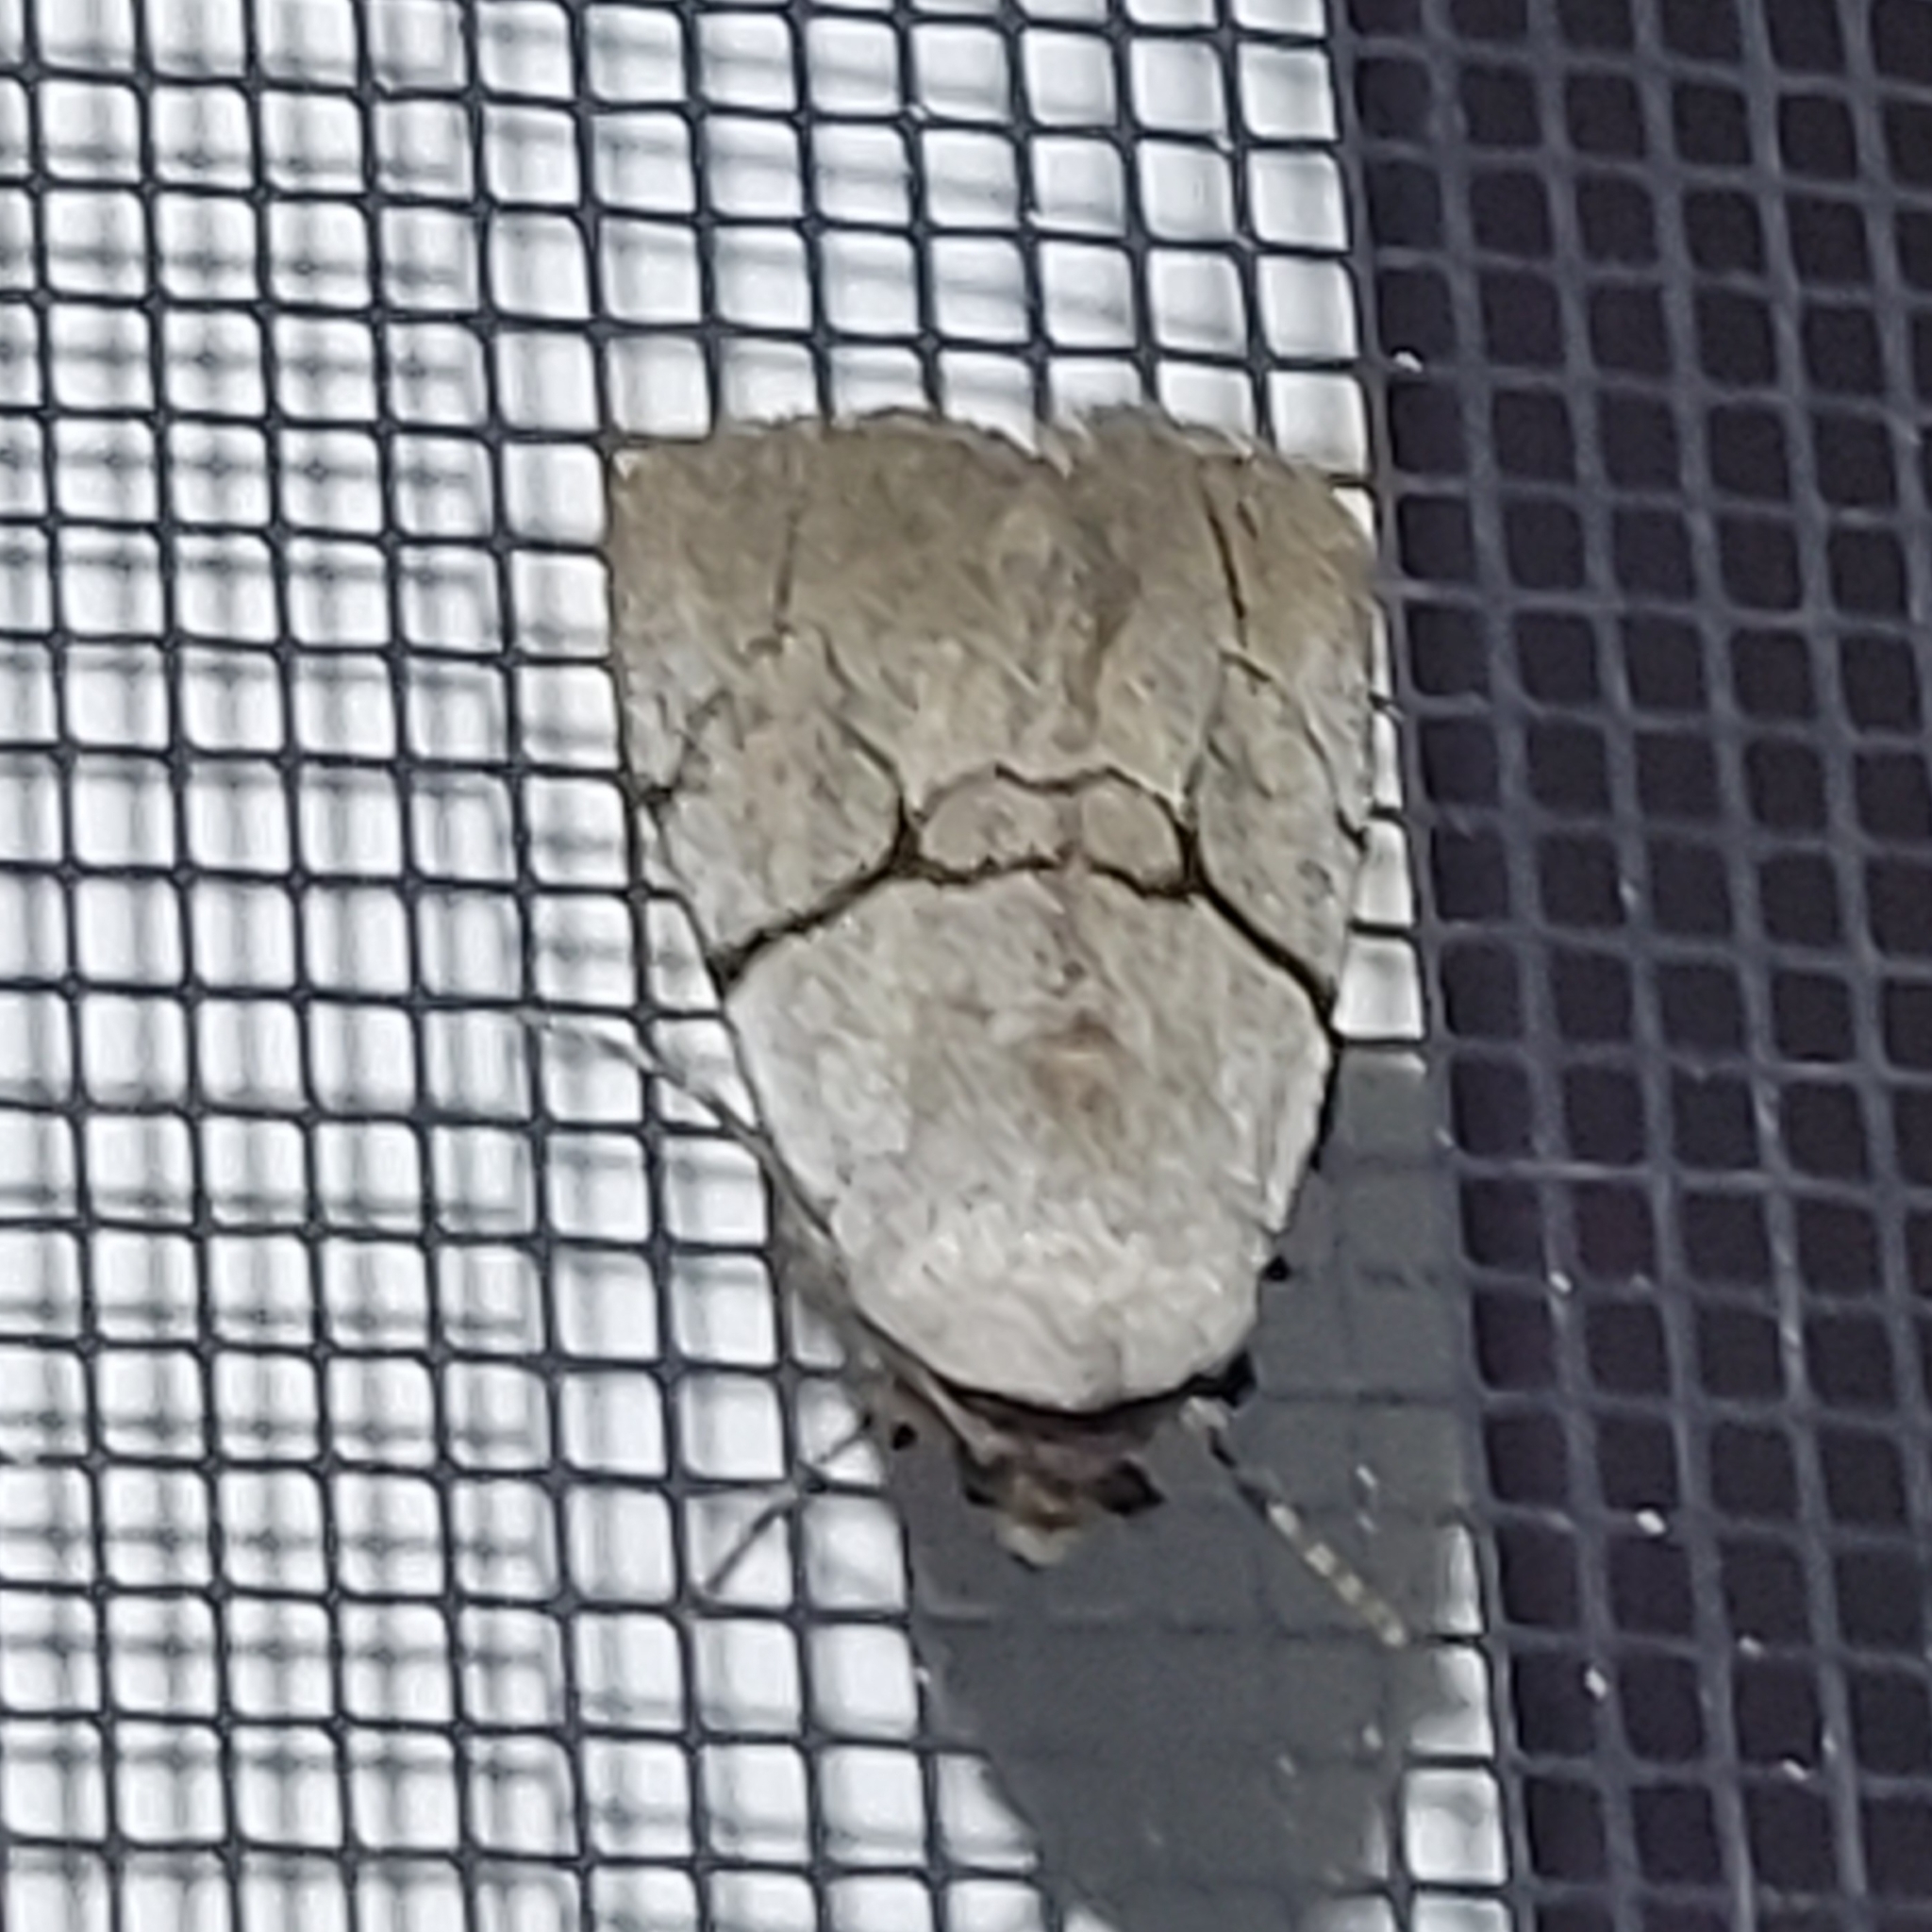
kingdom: Animalia
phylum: Arthropoda
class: Insecta
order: Lepidoptera
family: Noctuidae
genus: Sympistis
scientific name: Sympistis greyi
